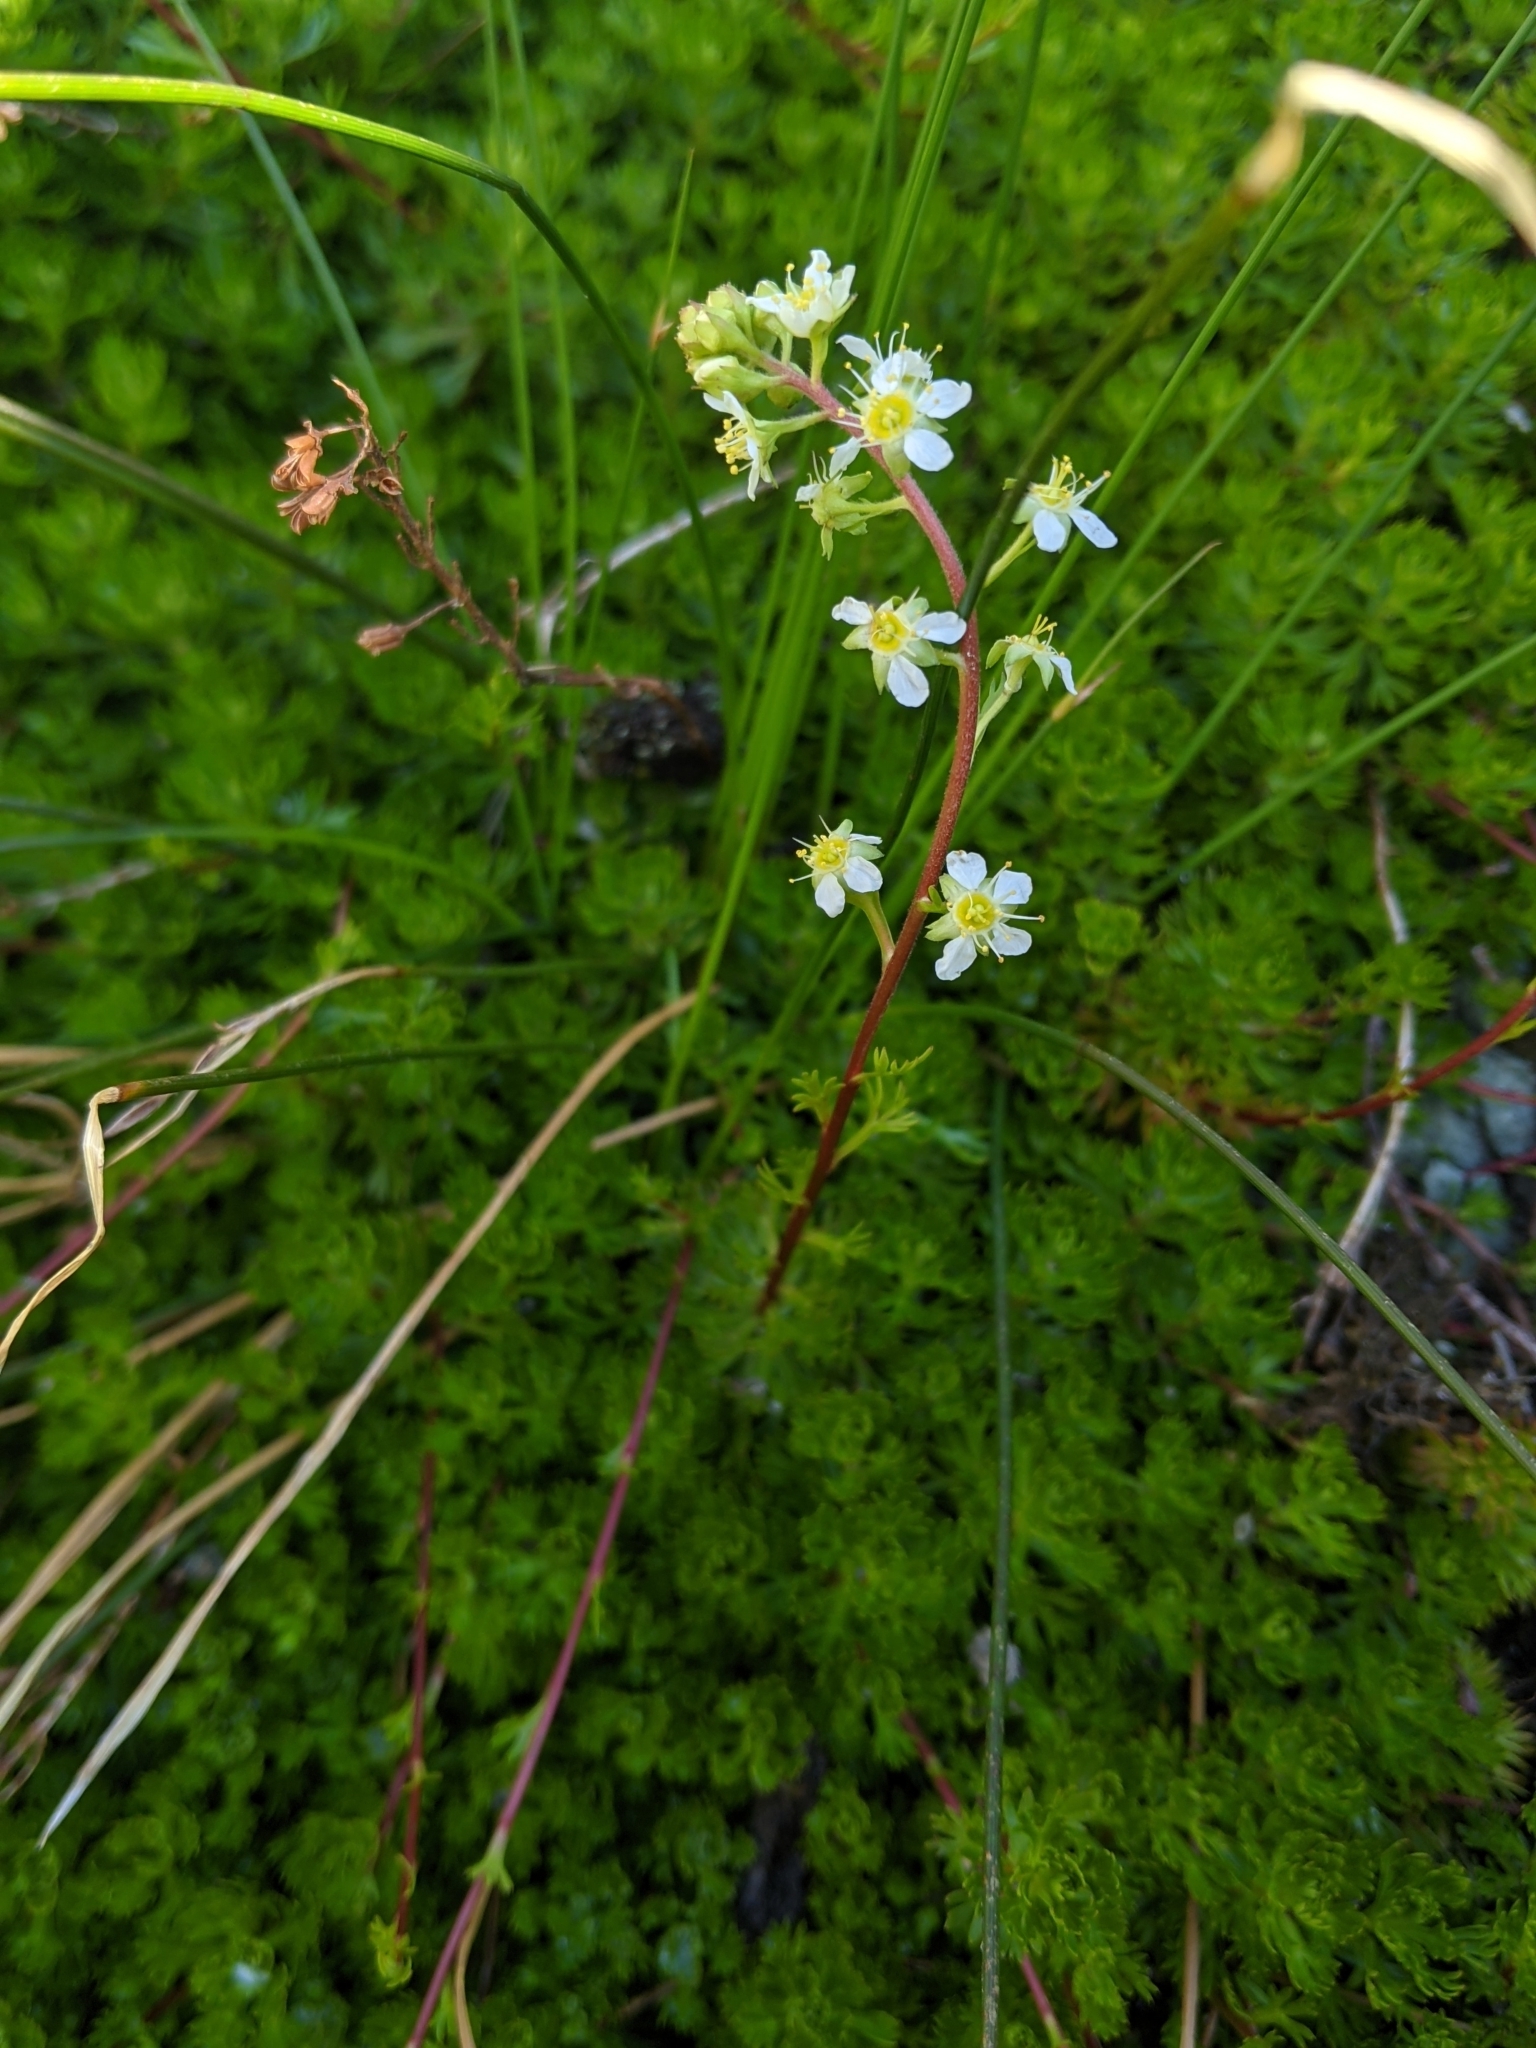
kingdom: Plantae
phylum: Tracheophyta
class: Magnoliopsida
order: Rosales
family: Rosaceae
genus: Luetkea
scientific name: Luetkea pectinata
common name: Partridgefoot
